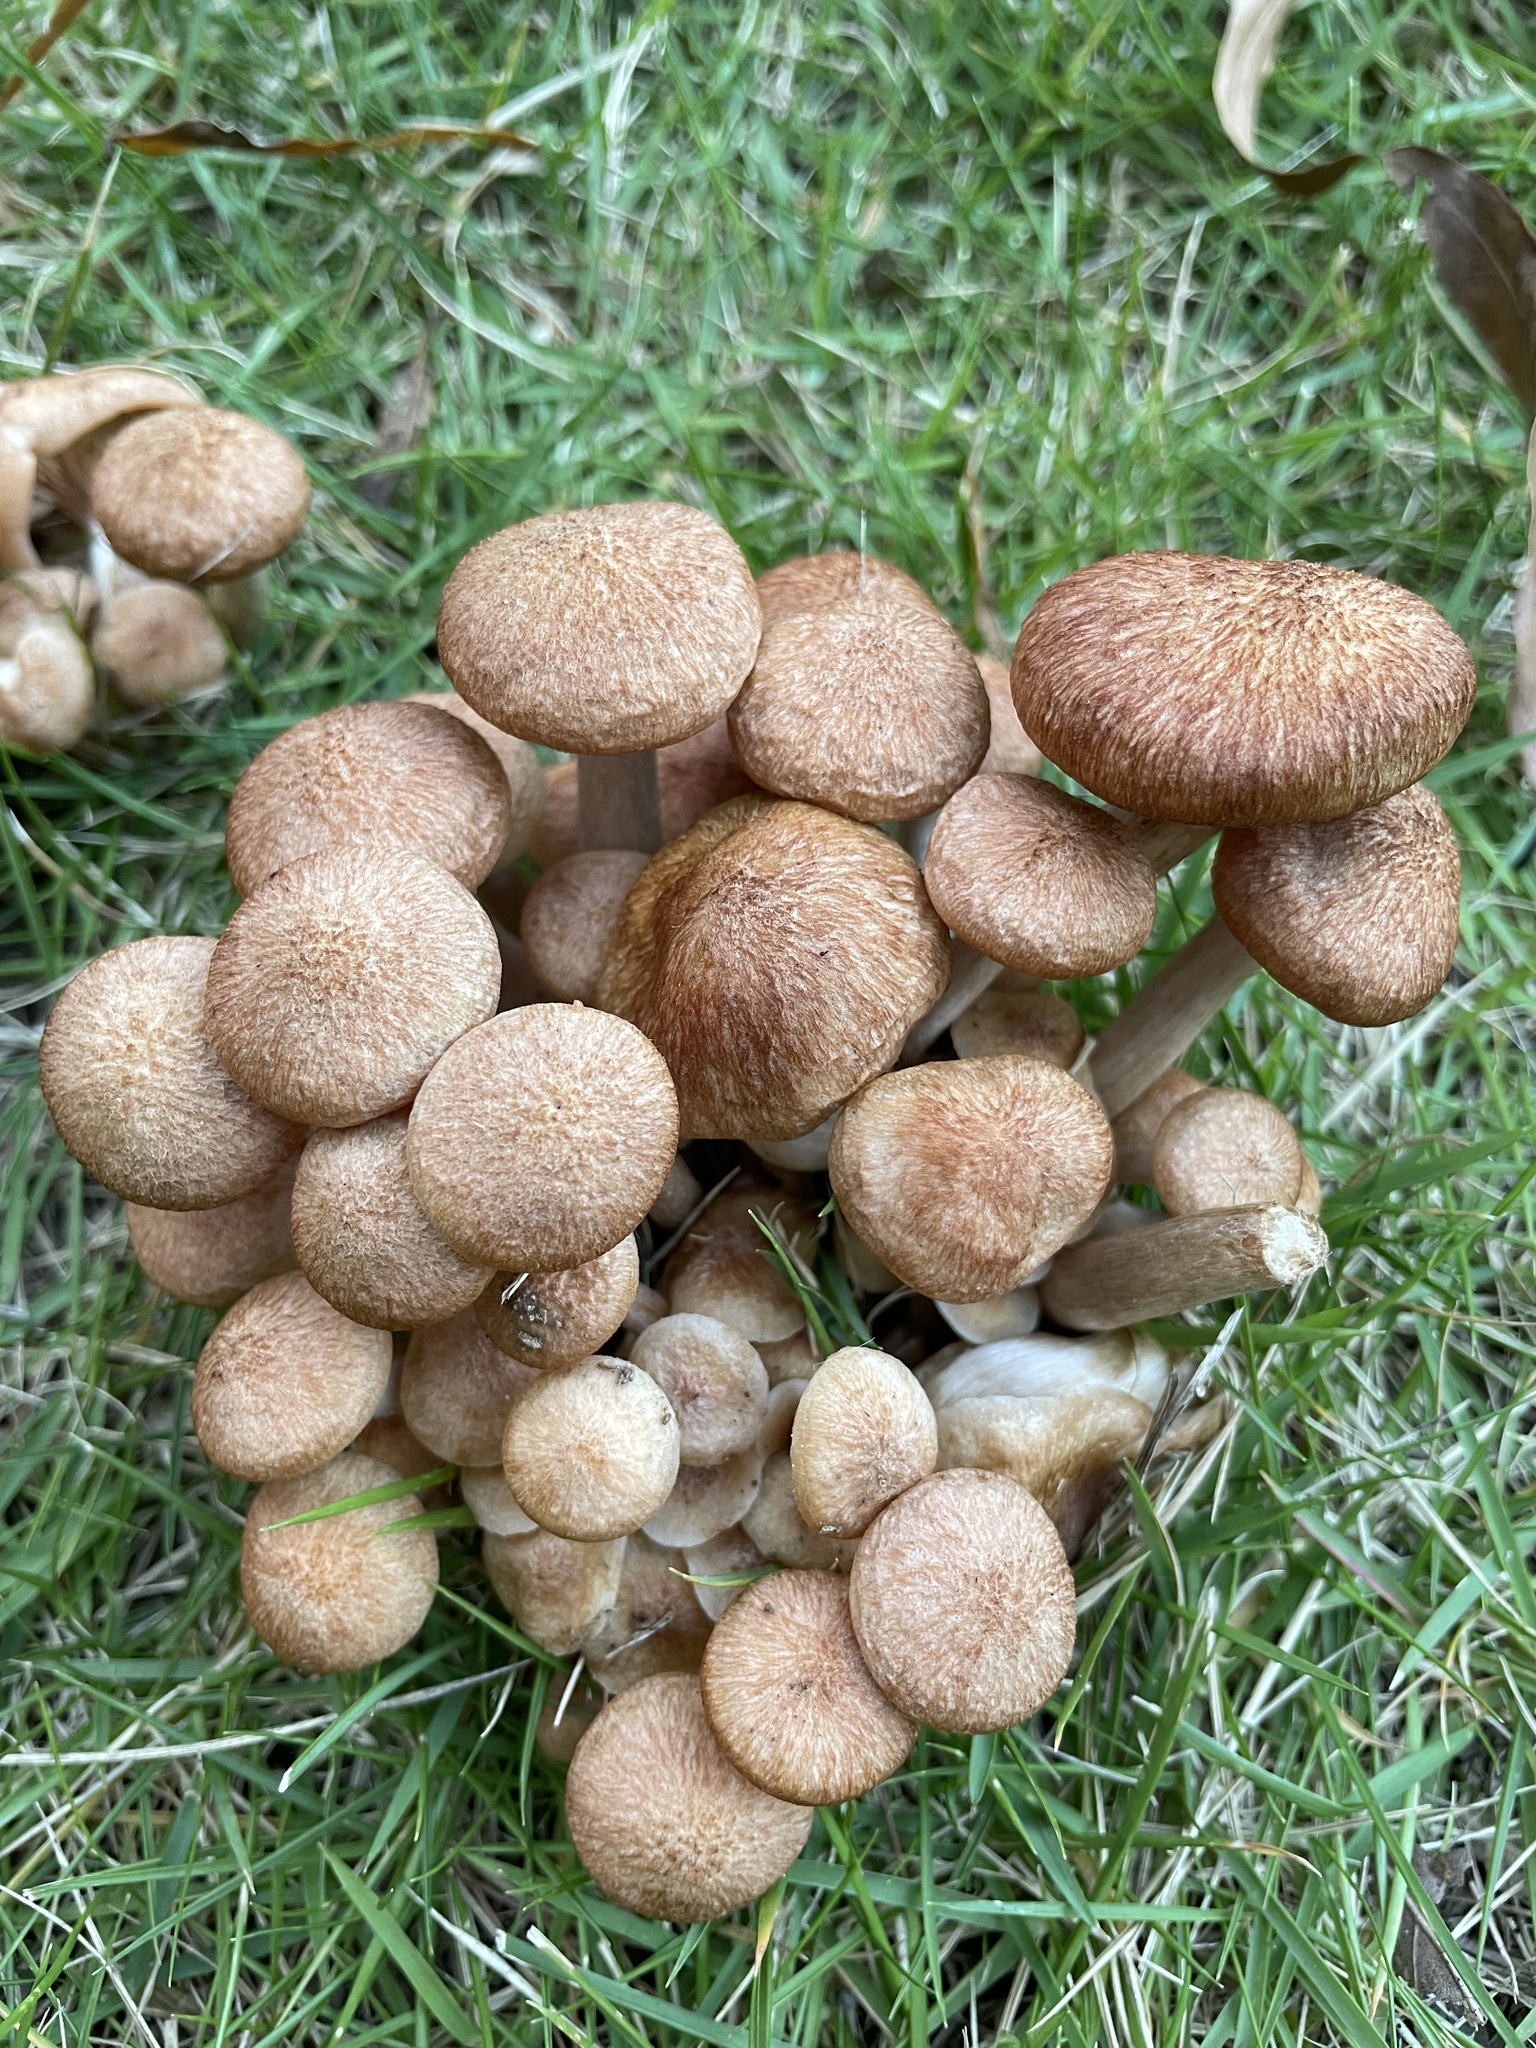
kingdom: Fungi
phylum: Basidiomycota
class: Agaricomycetes
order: Agaricales
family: Physalacriaceae
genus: Desarmillaria
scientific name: Desarmillaria caespitosa
